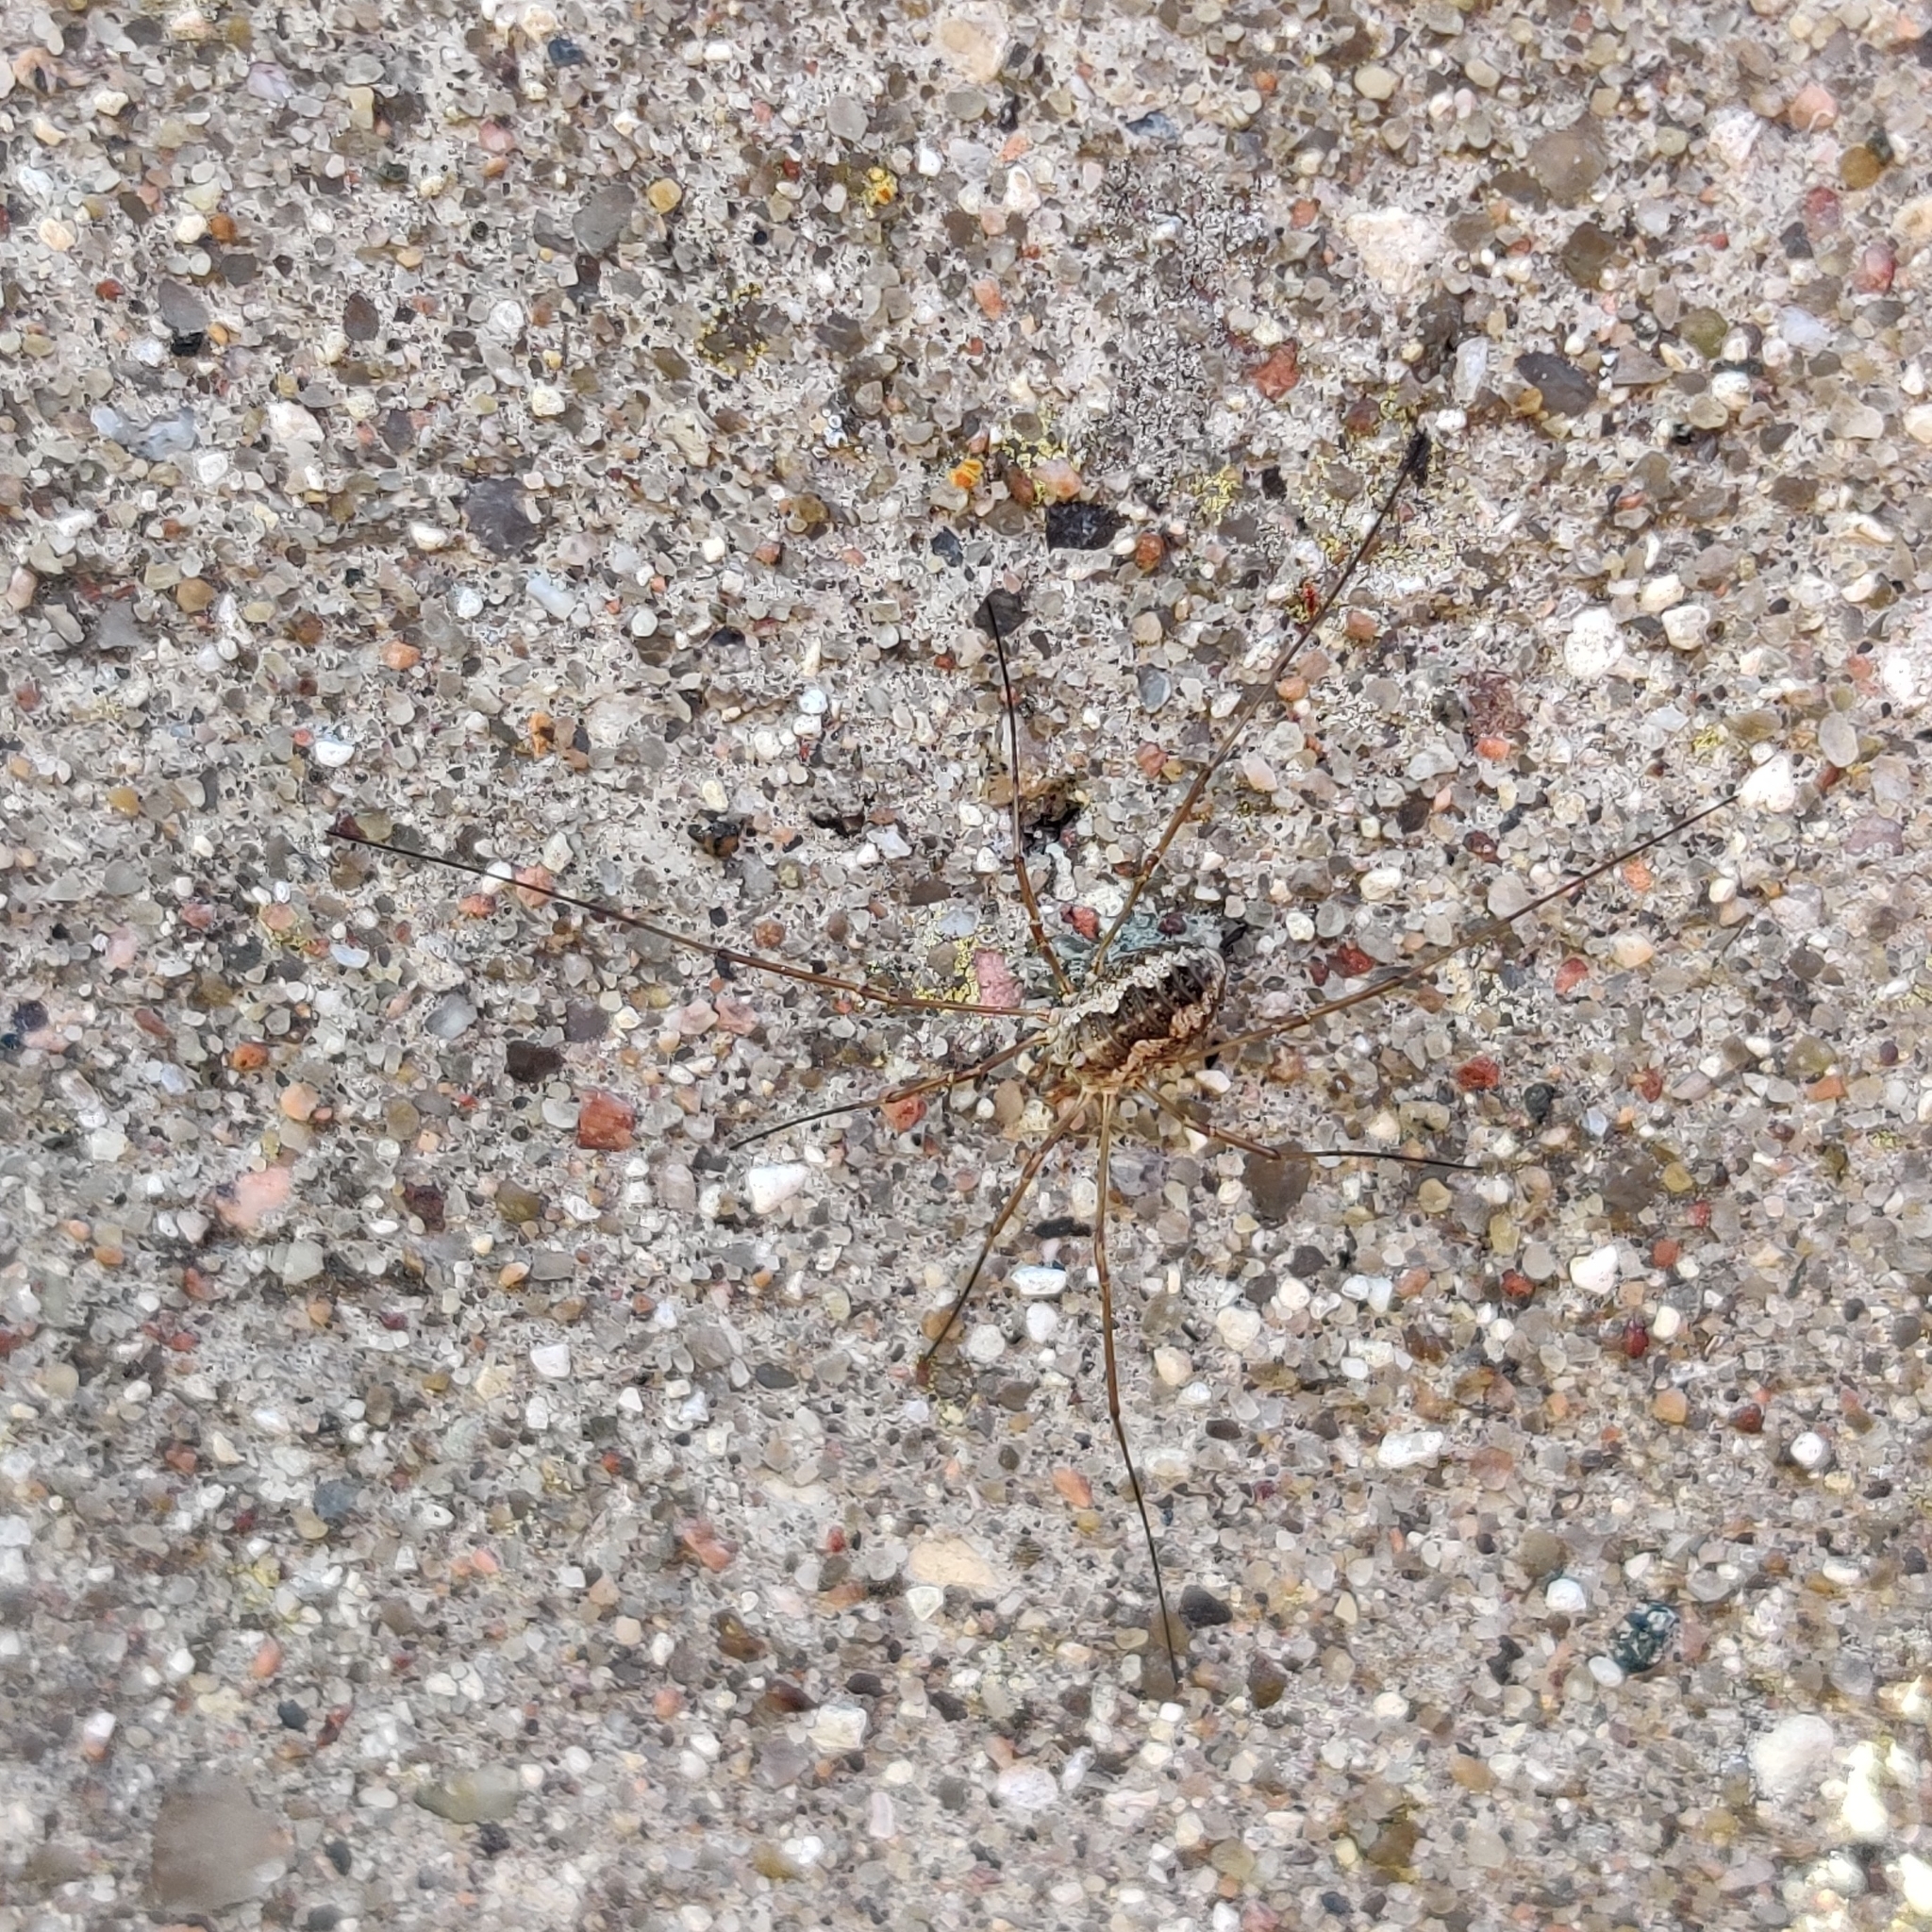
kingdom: Animalia
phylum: Arthropoda
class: Arachnida
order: Opiliones
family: Phalangiidae
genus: Phalangium
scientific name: Phalangium opilio
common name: Daddy longleg
